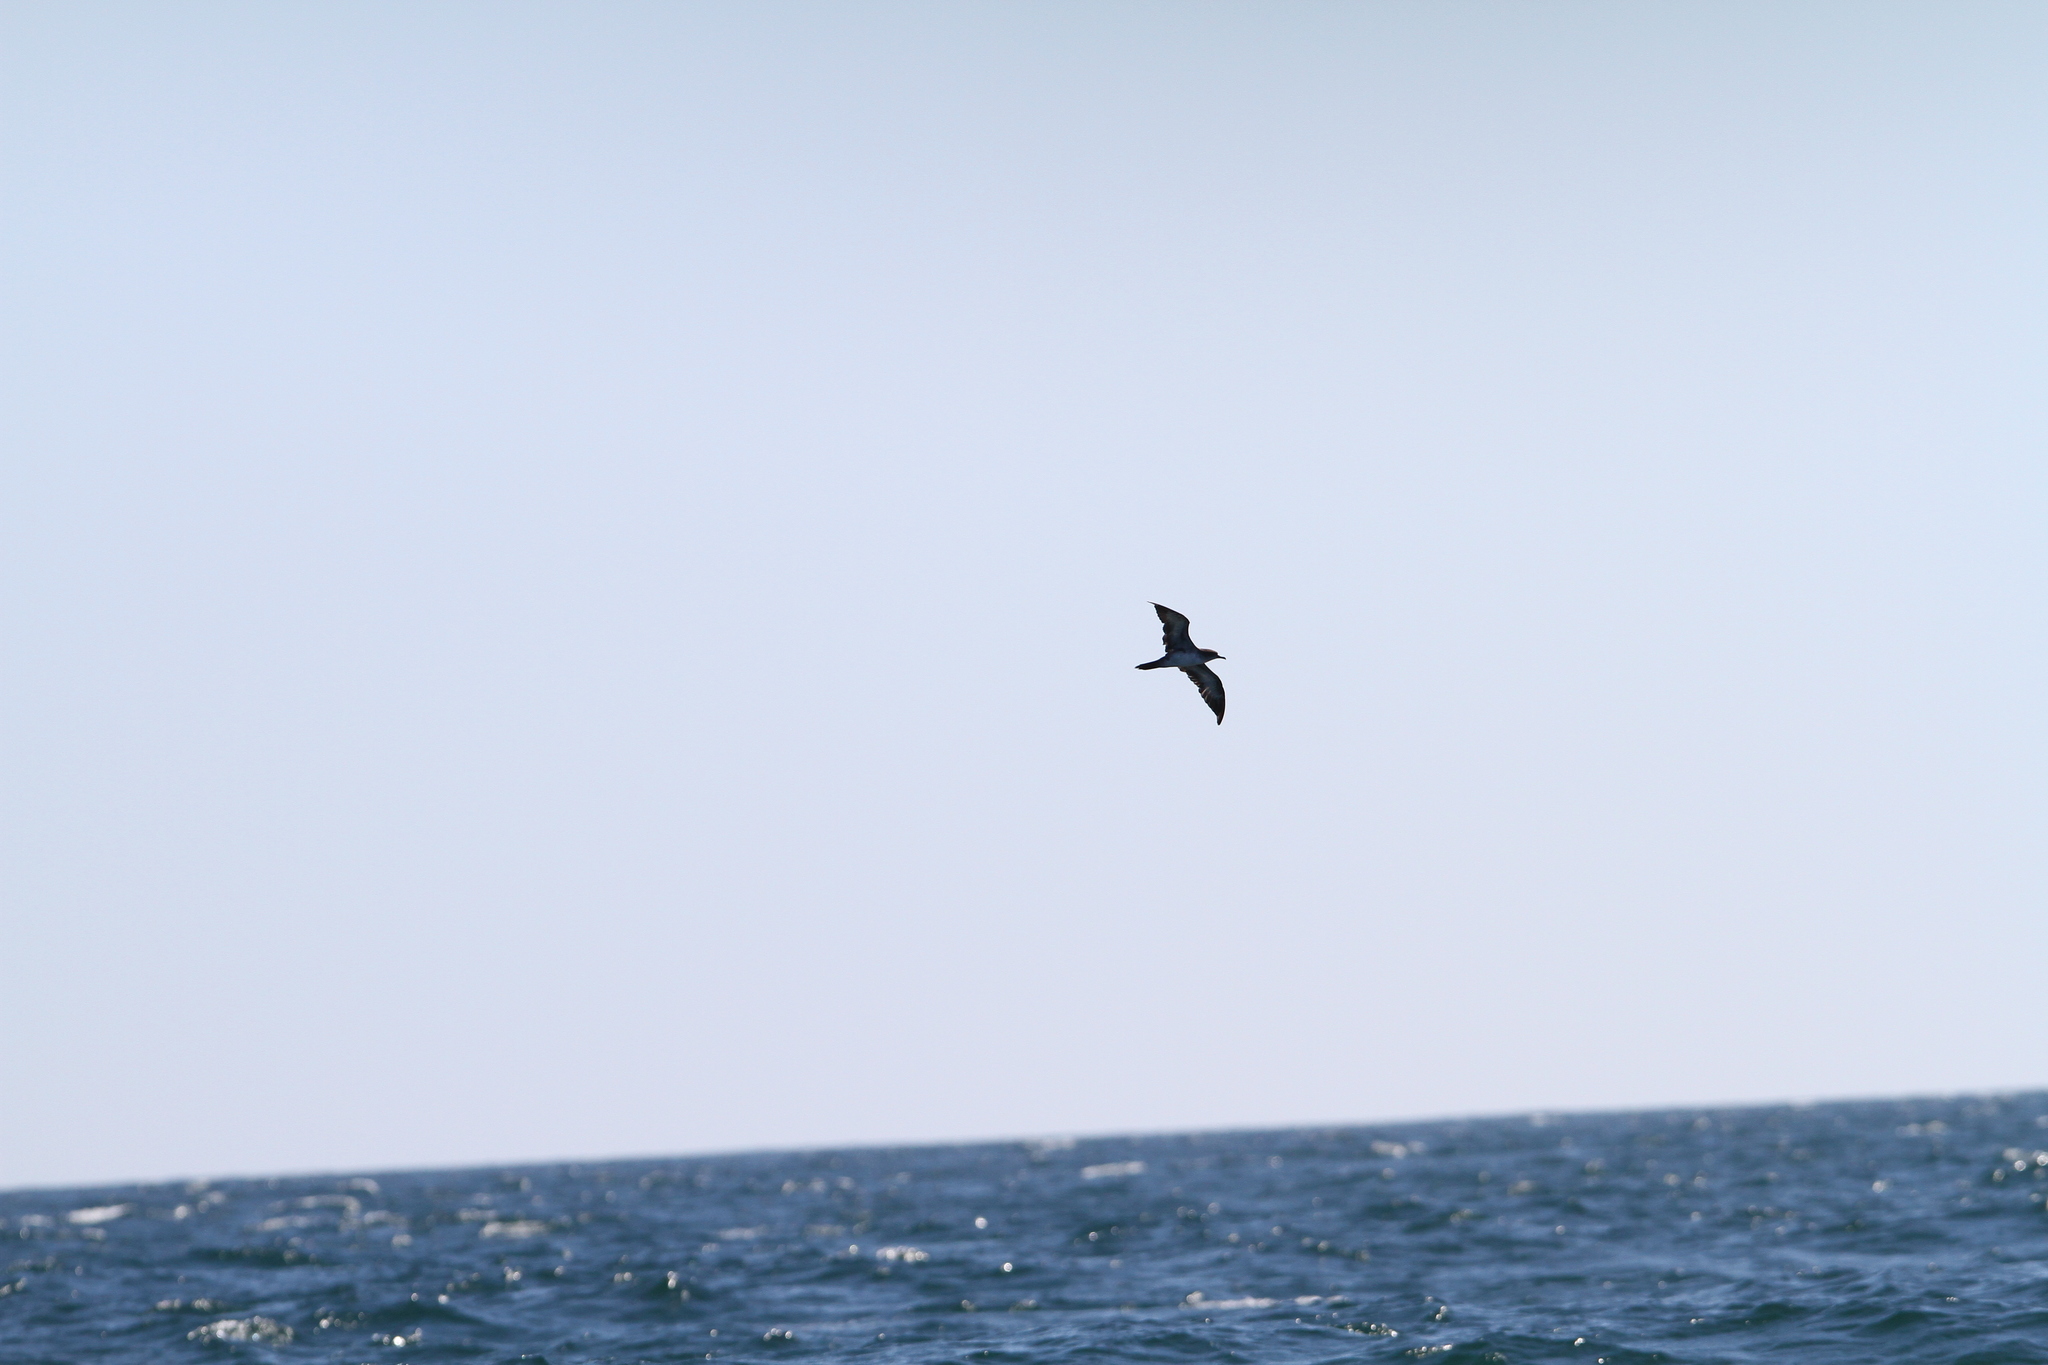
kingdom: Animalia
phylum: Chordata
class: Aves
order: Procellariiformes
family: Procellariidae
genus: Puffinus
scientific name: Puffinus pacificus
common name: Wedge-tailed shearwater
